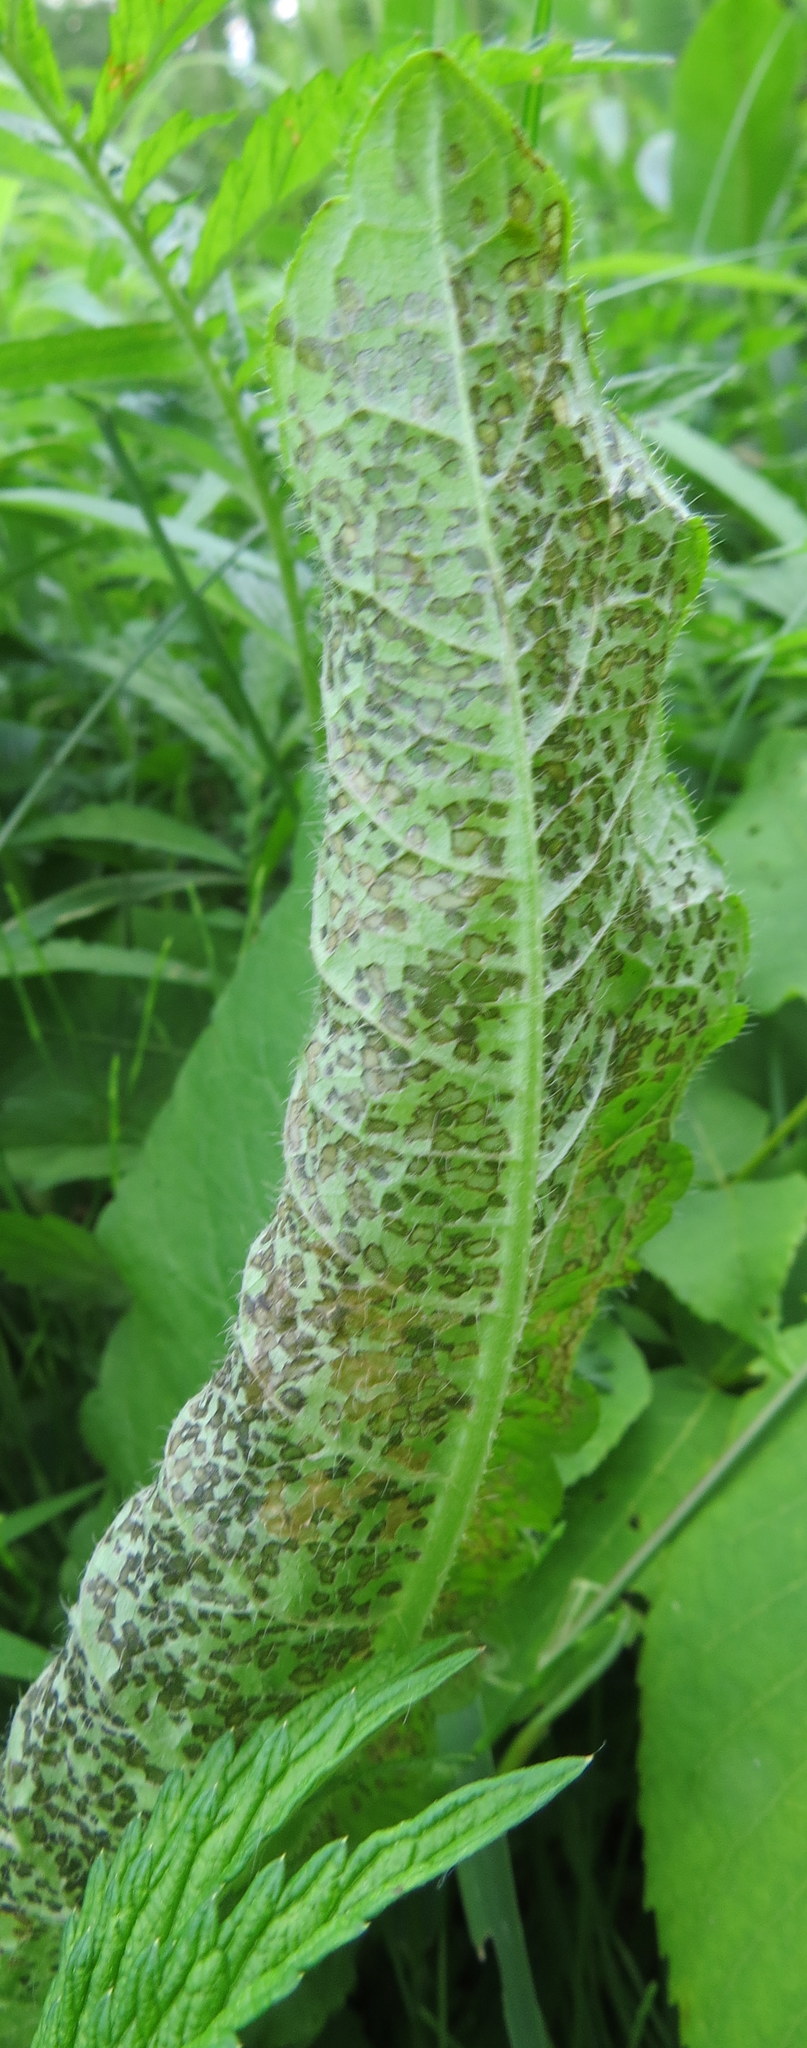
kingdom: Animalia
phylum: Arthropoda
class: Insecta
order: Hemiptera
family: Miridae
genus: Poecilocapsus
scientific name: Poecilocapsus lineatus
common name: Four-lined plant bug
